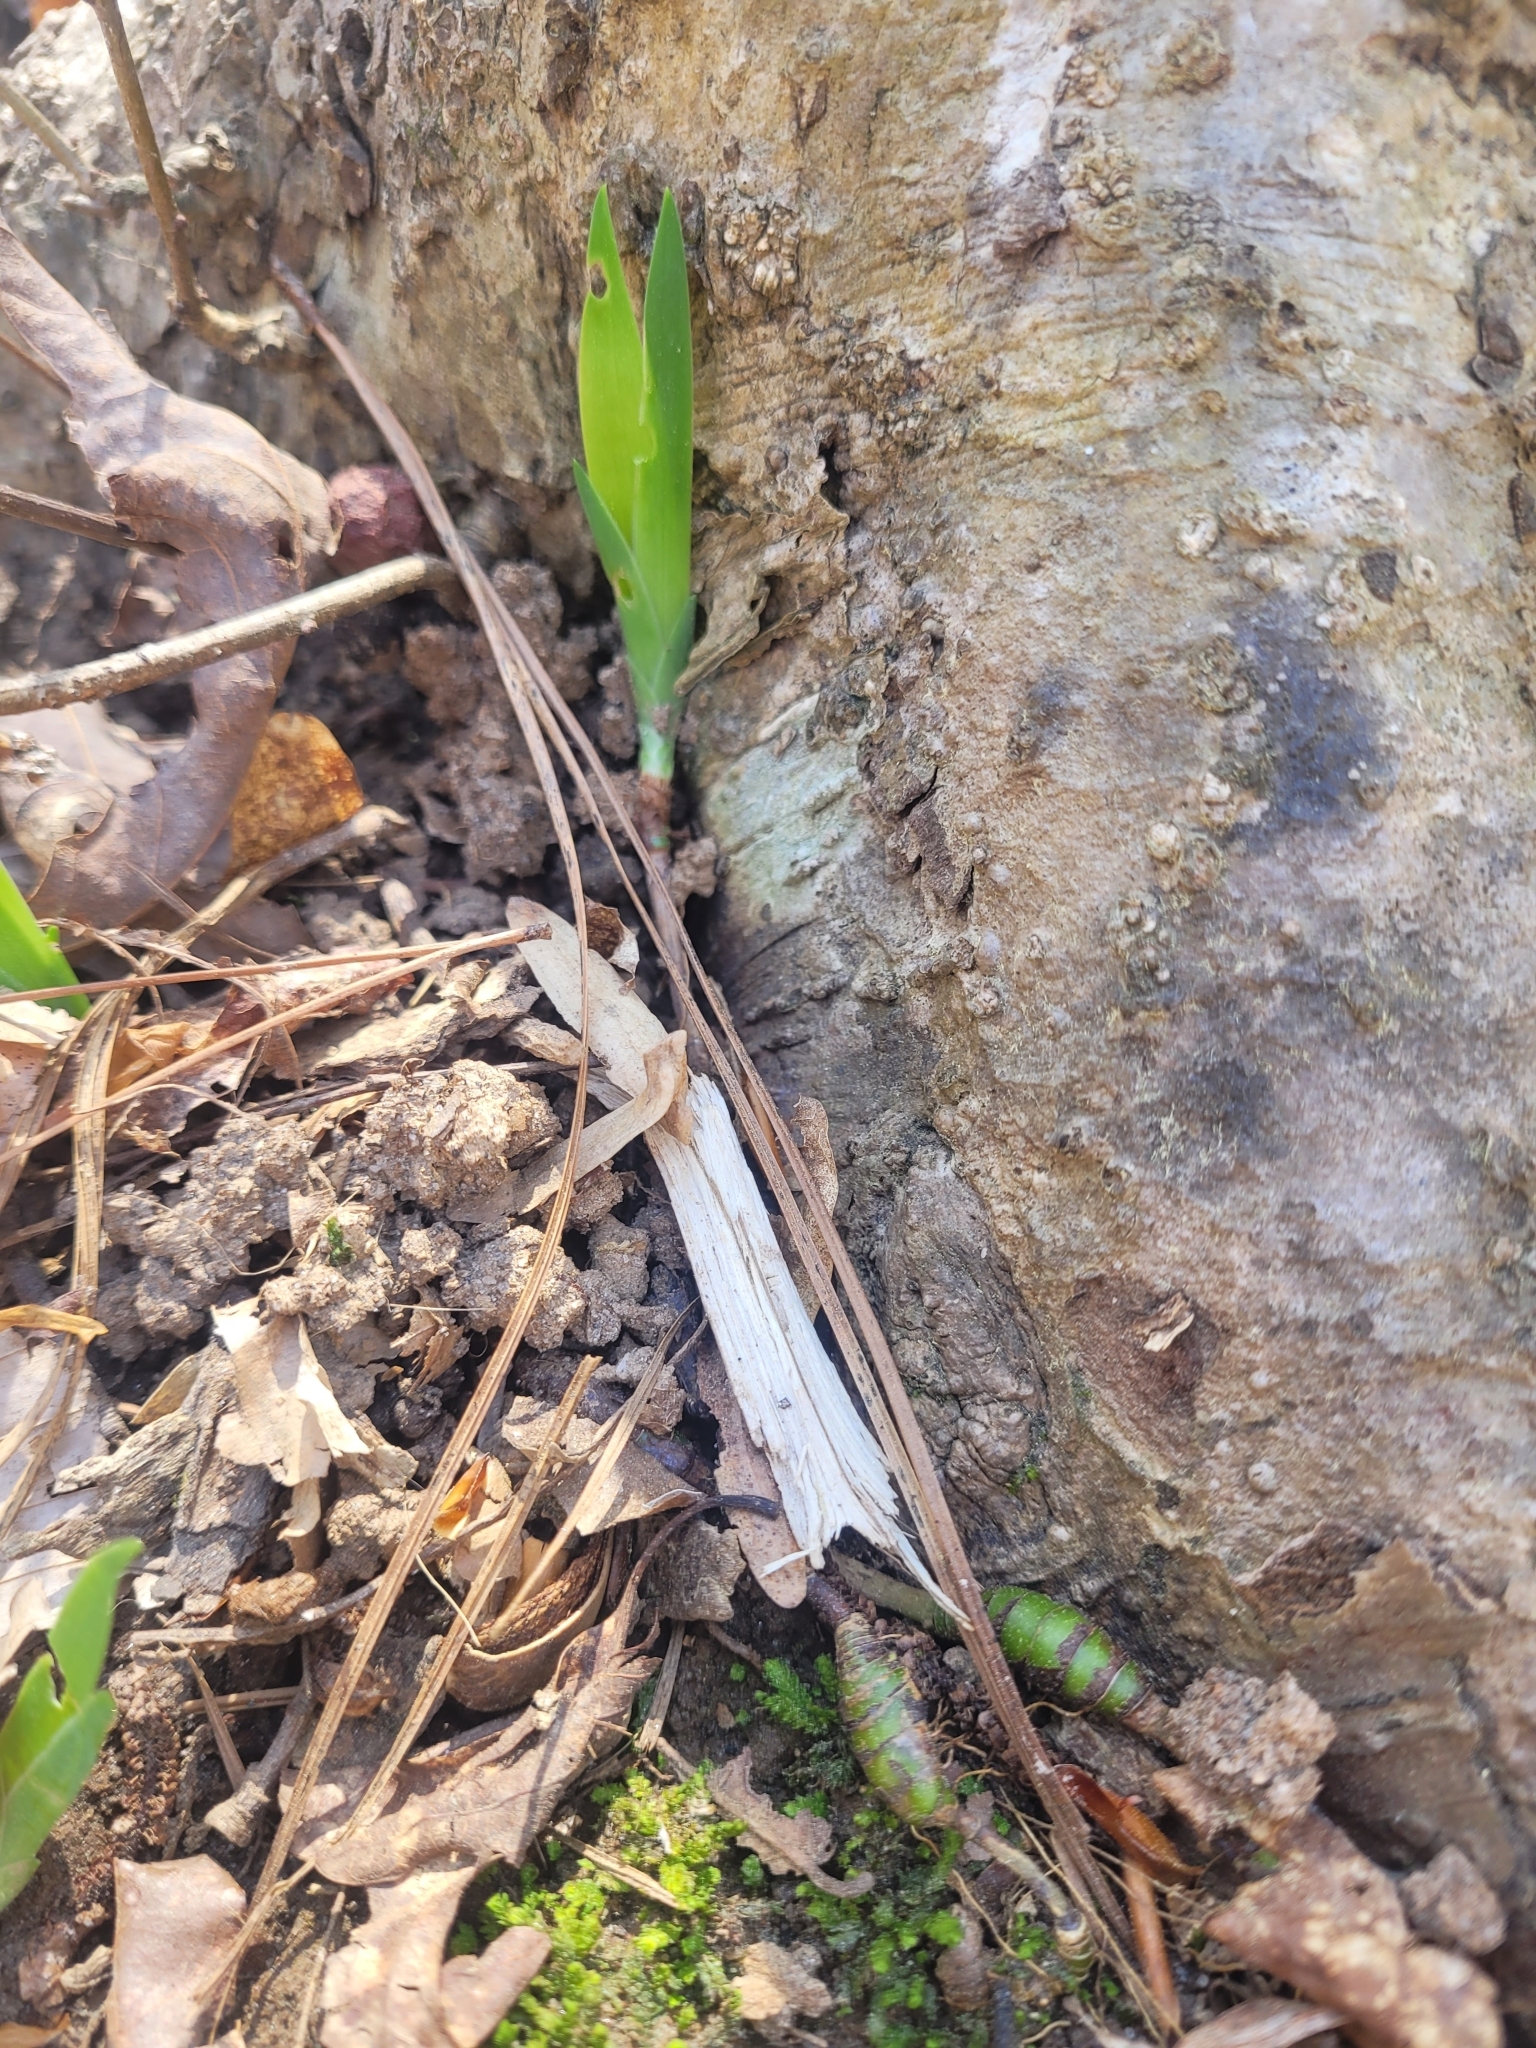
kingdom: Plantae
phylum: Tracheophyta
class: Liliopsida
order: Asparagales
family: Iridaceae
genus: Iris
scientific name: Iris cristata
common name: Crested iris
